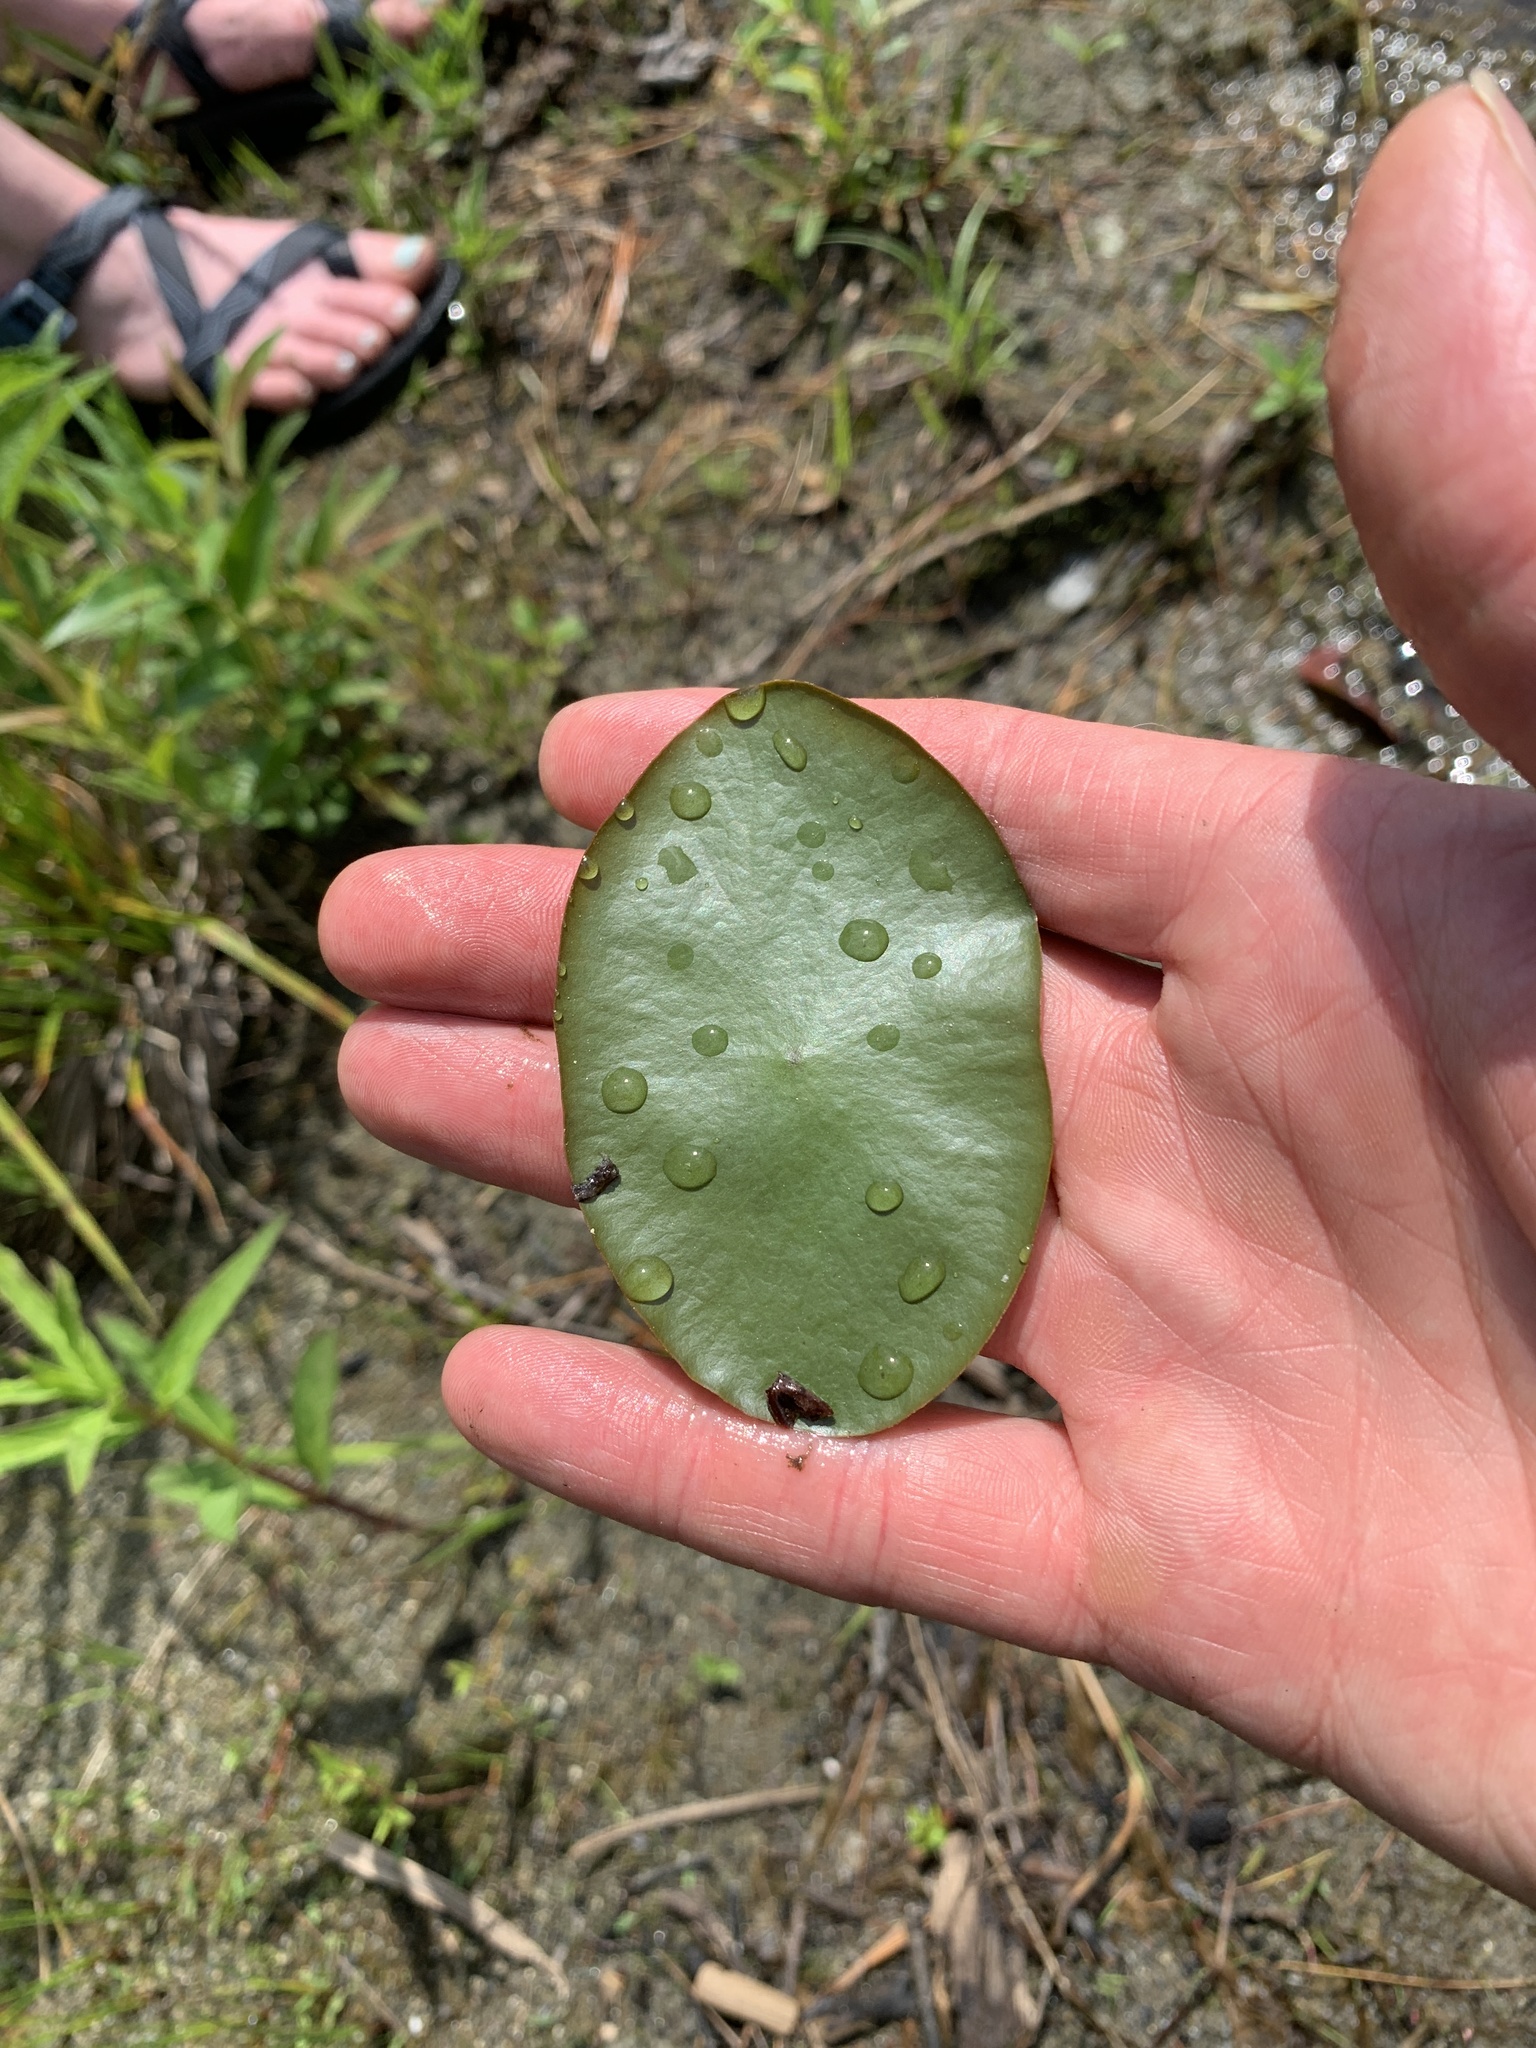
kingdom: Plantae
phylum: Tracheophyta
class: Magnoliopsida
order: Nymphaeales
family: Cabombaceae
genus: Brasenia
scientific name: Brasenia schreberi
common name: Water-shield
